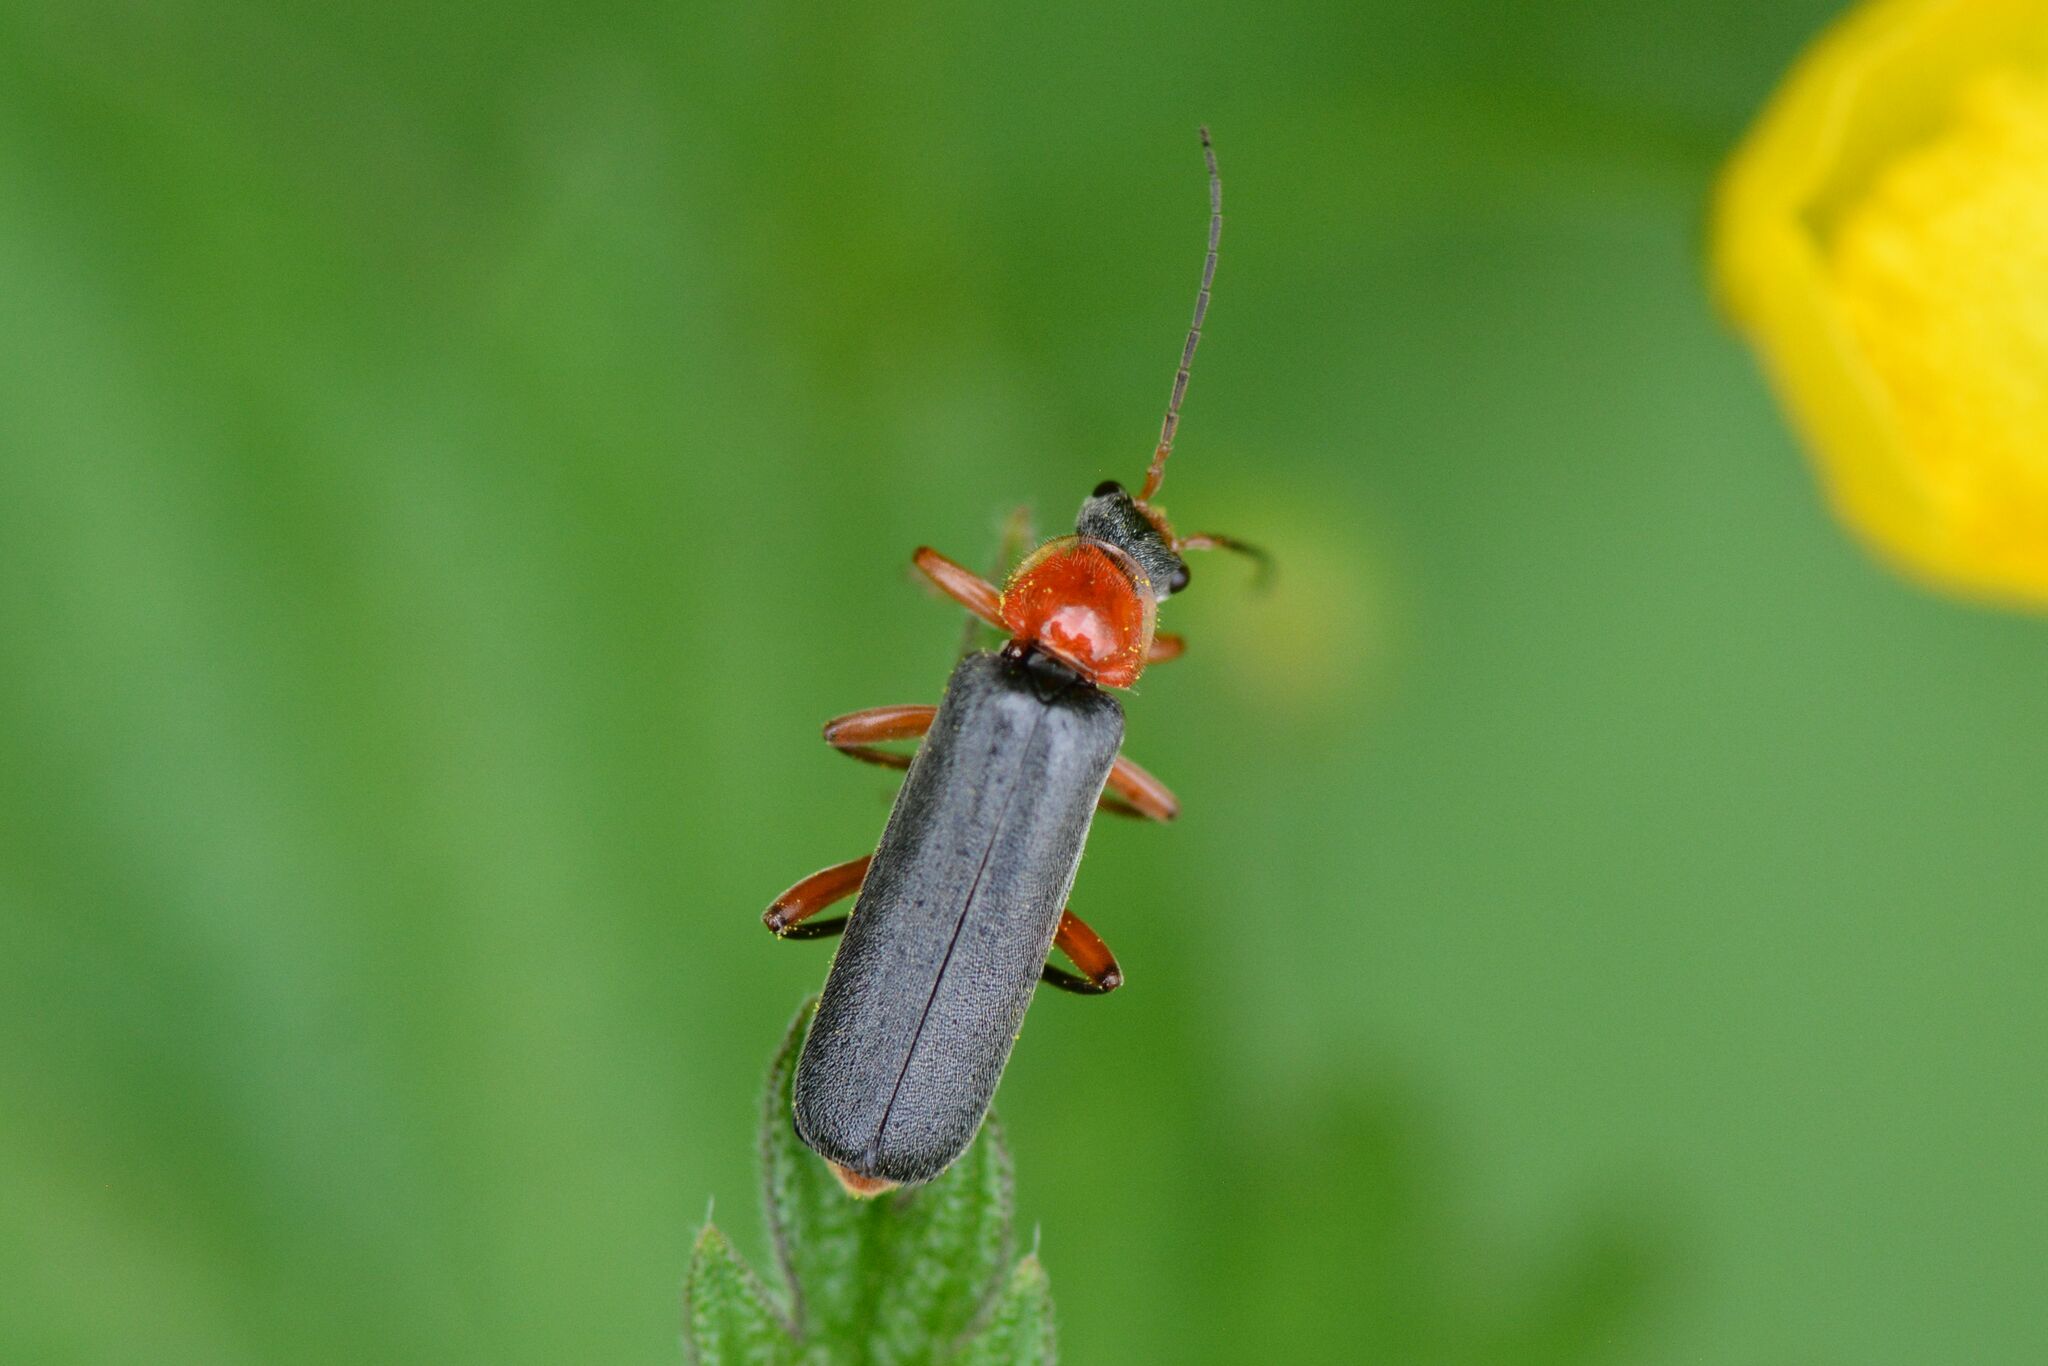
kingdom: Animalia
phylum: Arthropoda
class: Insecta
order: Coleoptera
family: Cantharidae
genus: Cantharis
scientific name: Cantharis pellucida
